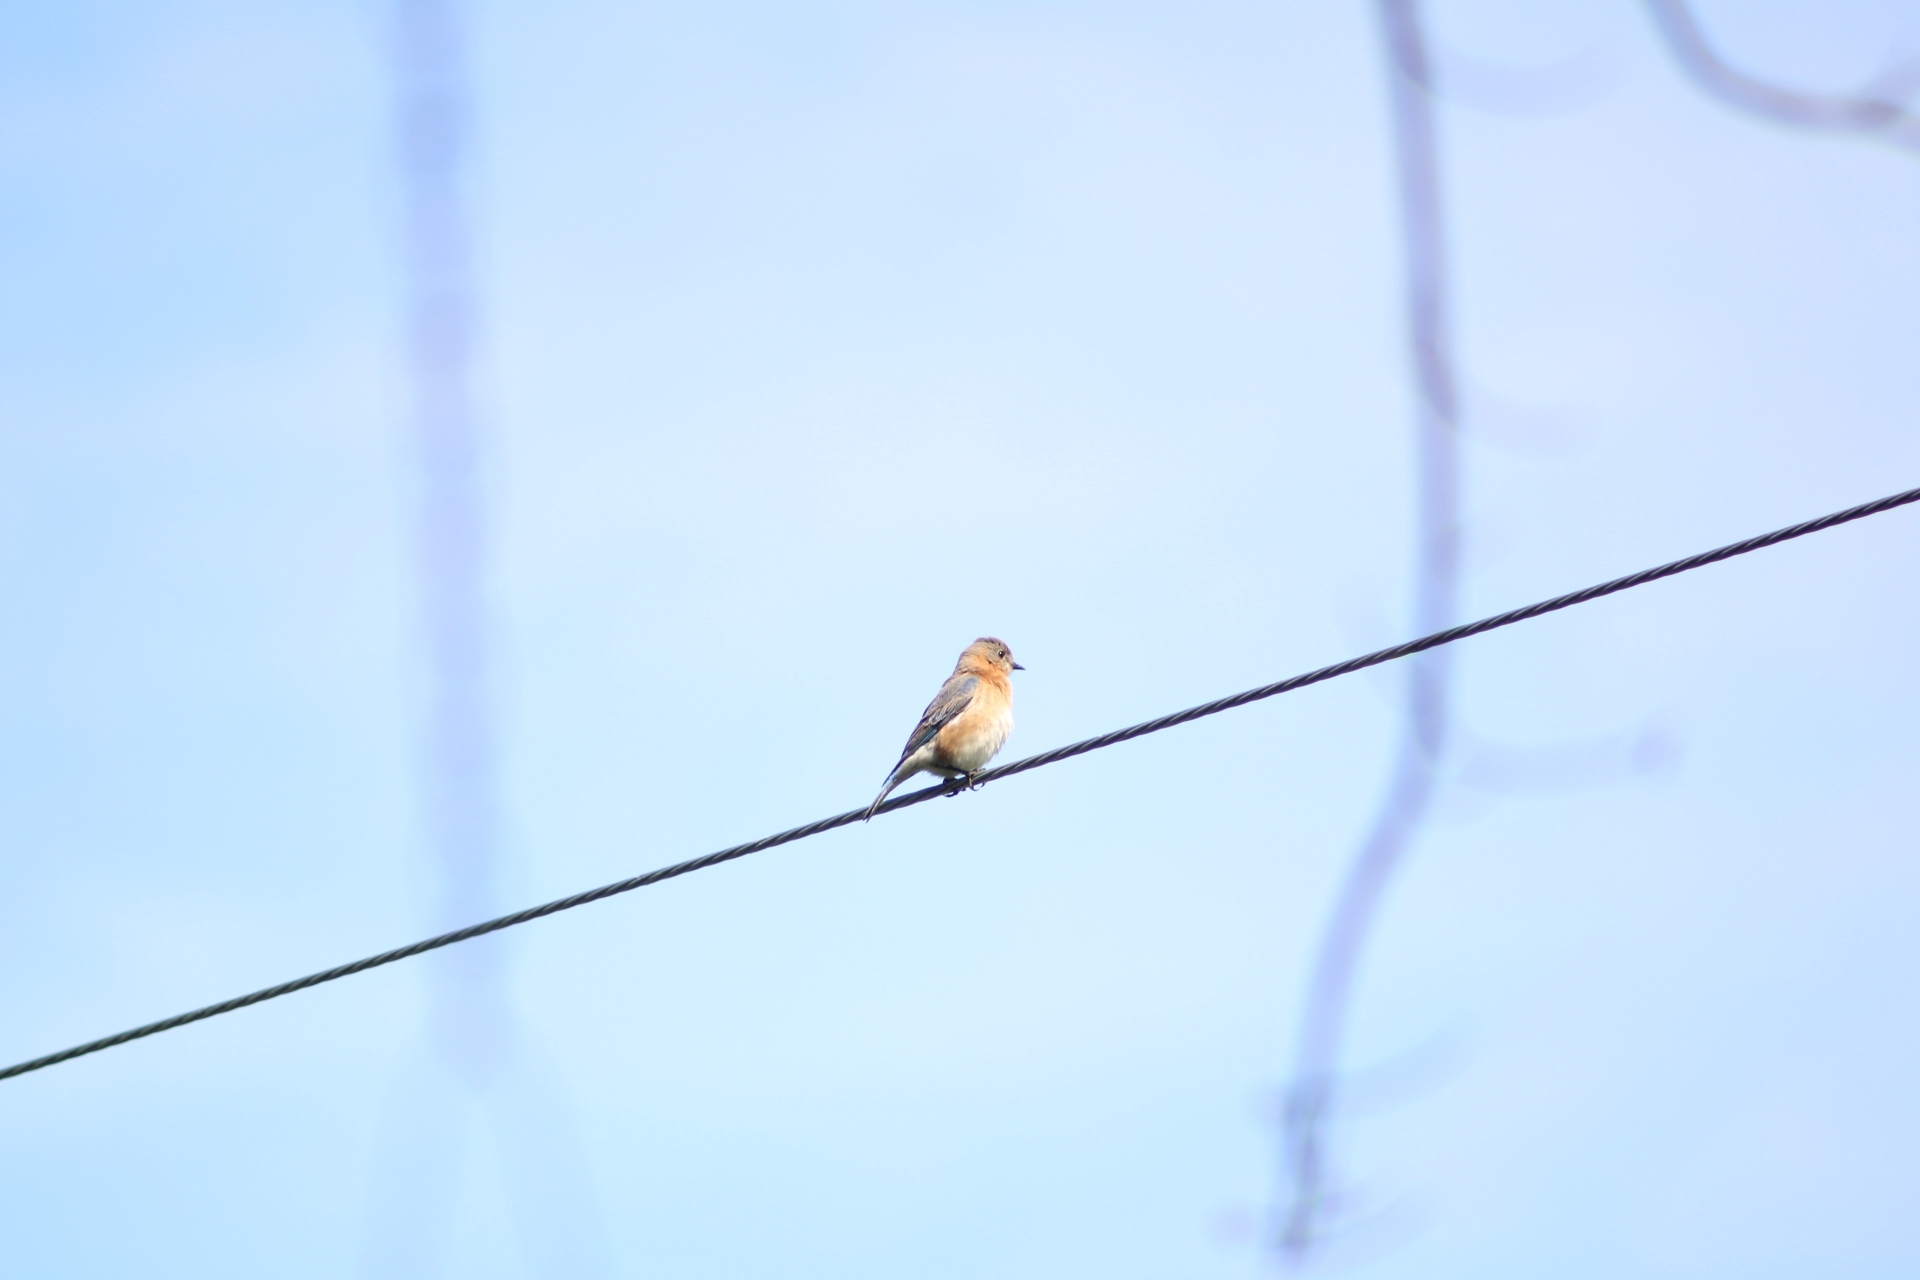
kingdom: Animalia
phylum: Chordata
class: Aves
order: Passeriformes
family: Turdidae
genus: Sialia
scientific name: Sialia sialis
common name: Eastern bluebird
